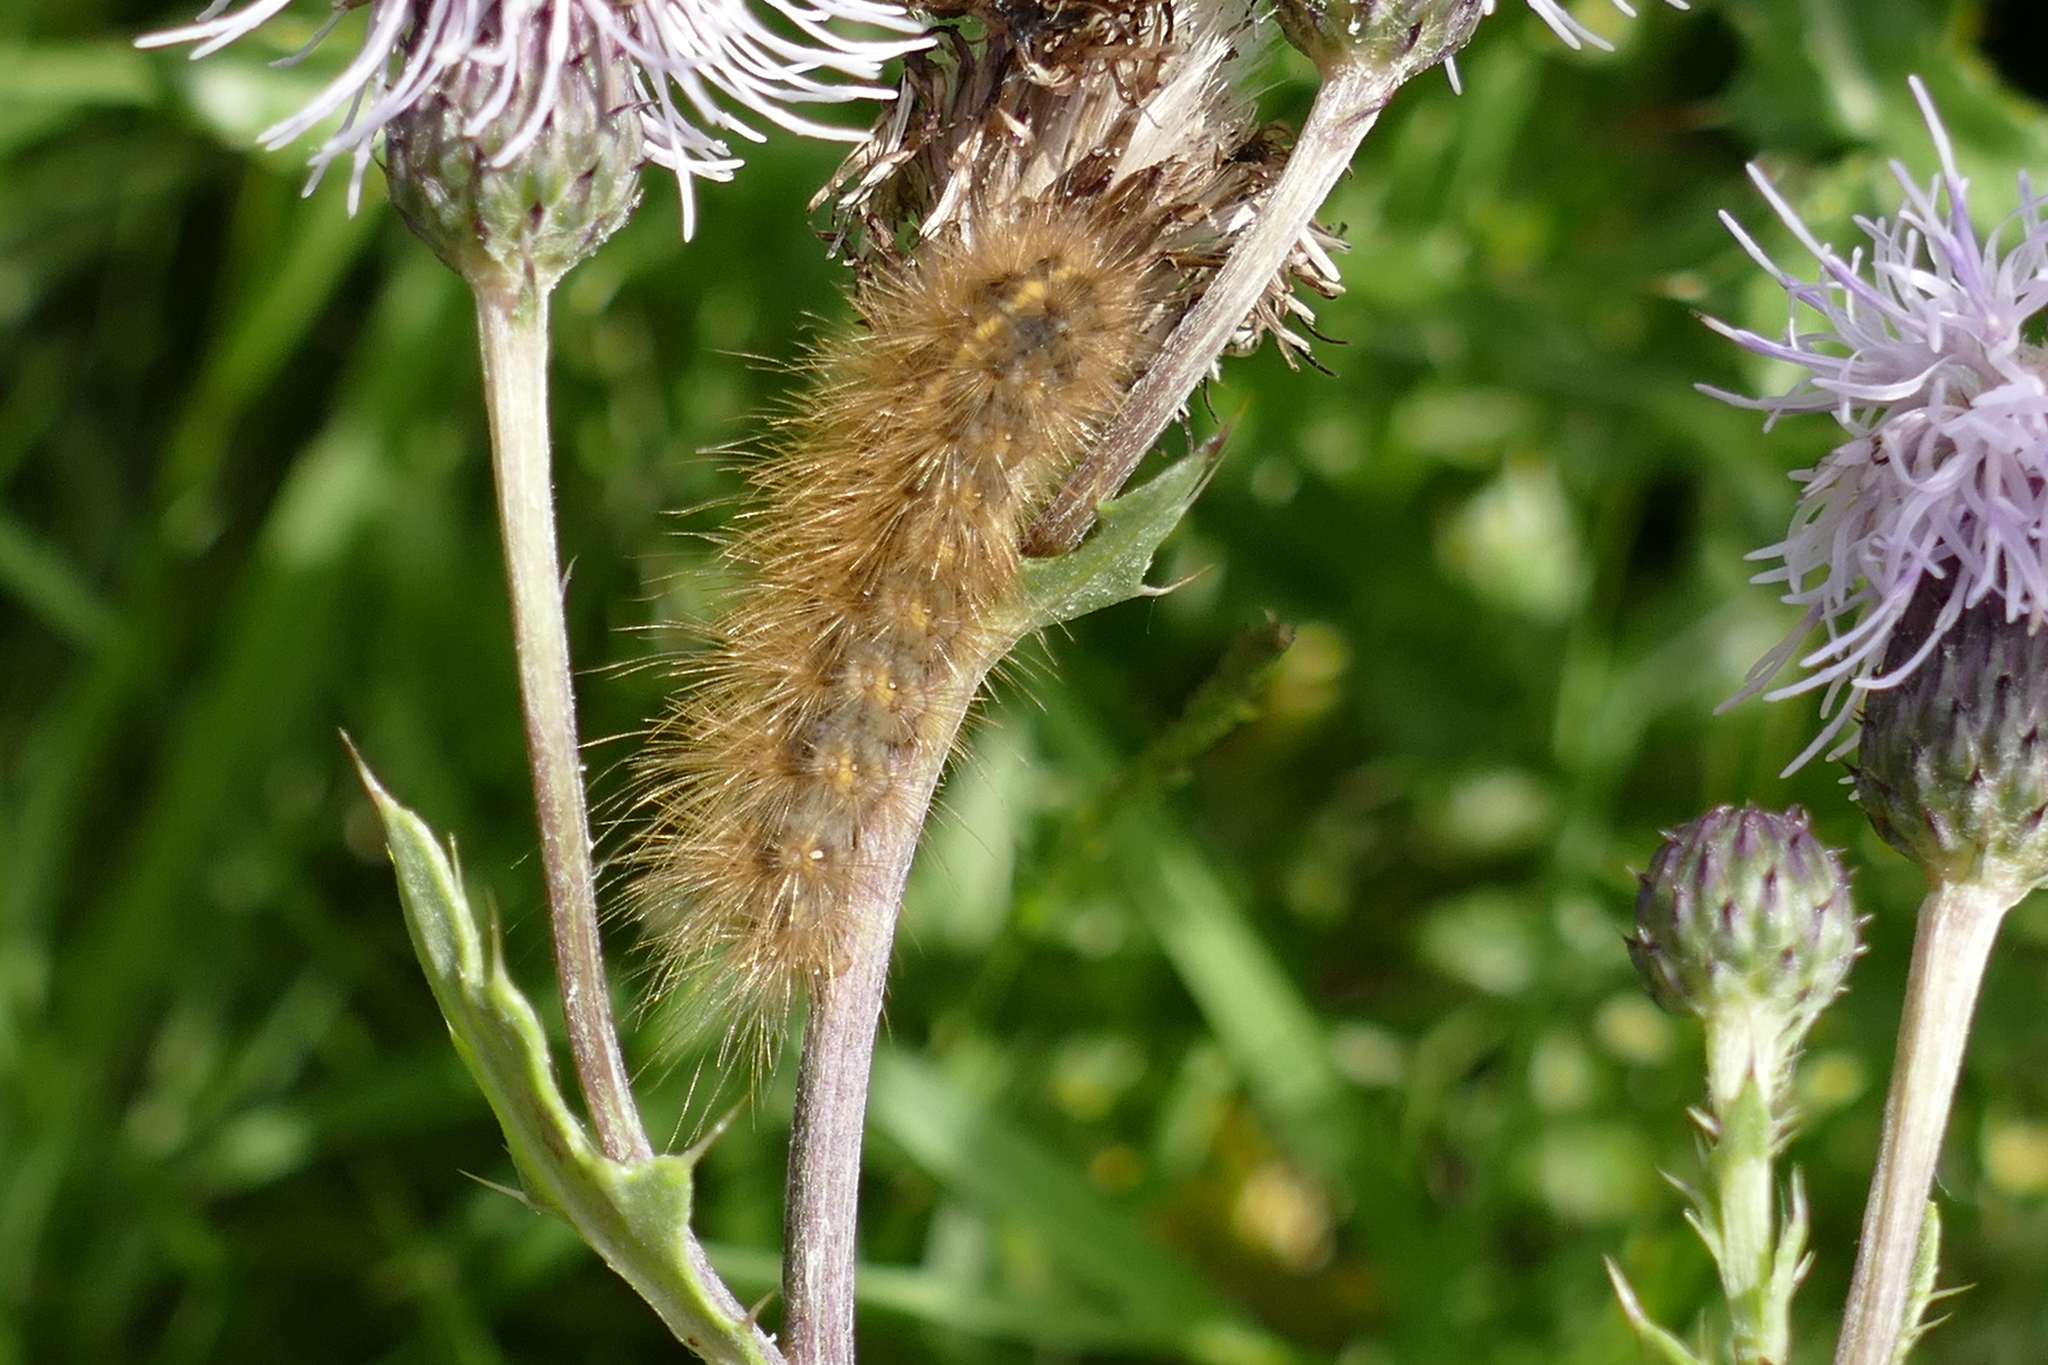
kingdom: Animalia
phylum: Arthropoda
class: Insecta
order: Lepidoptera
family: Erebidae
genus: Phragmatobia
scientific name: Phragmatobia fuliginosa
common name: Ruby tiger
